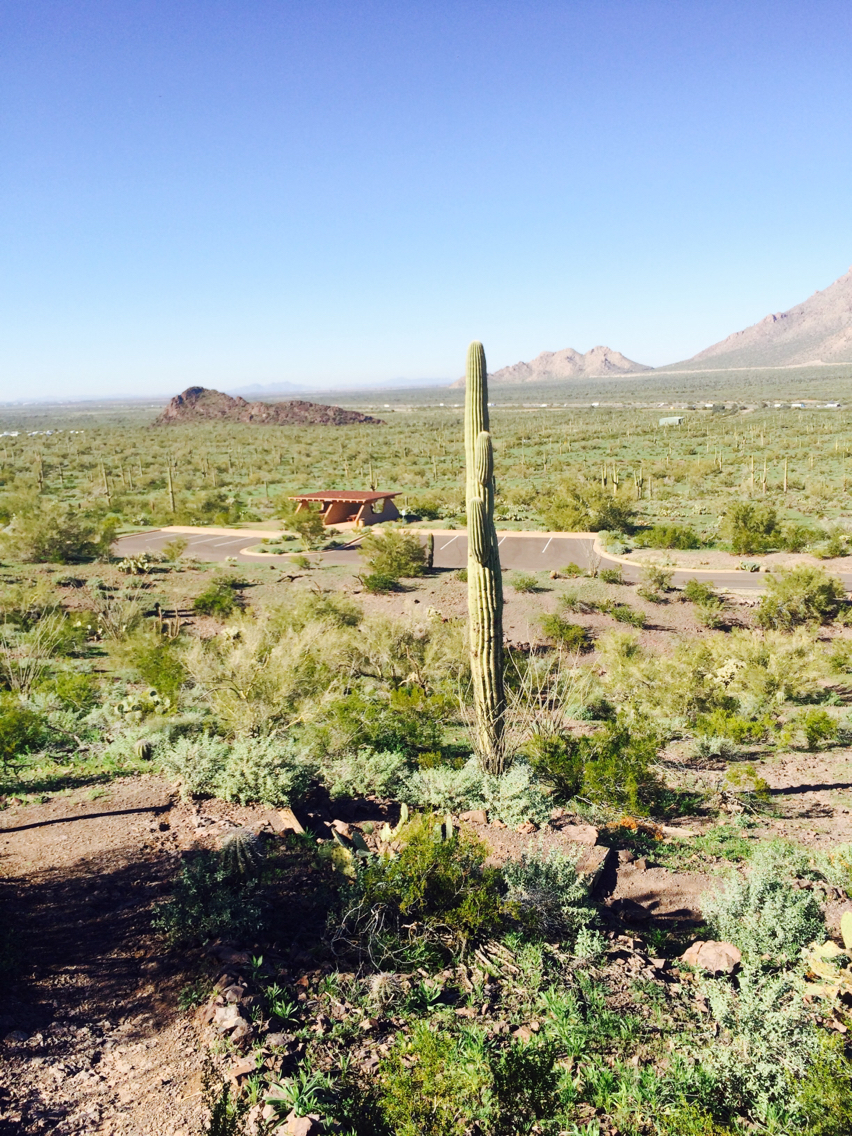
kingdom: Plantae
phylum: Tracheophyta
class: Magnoliopsida
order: Caryophyllales
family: Cactaceae
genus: Carnegiea
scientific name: Carnegiea gigantea
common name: Saguaro
